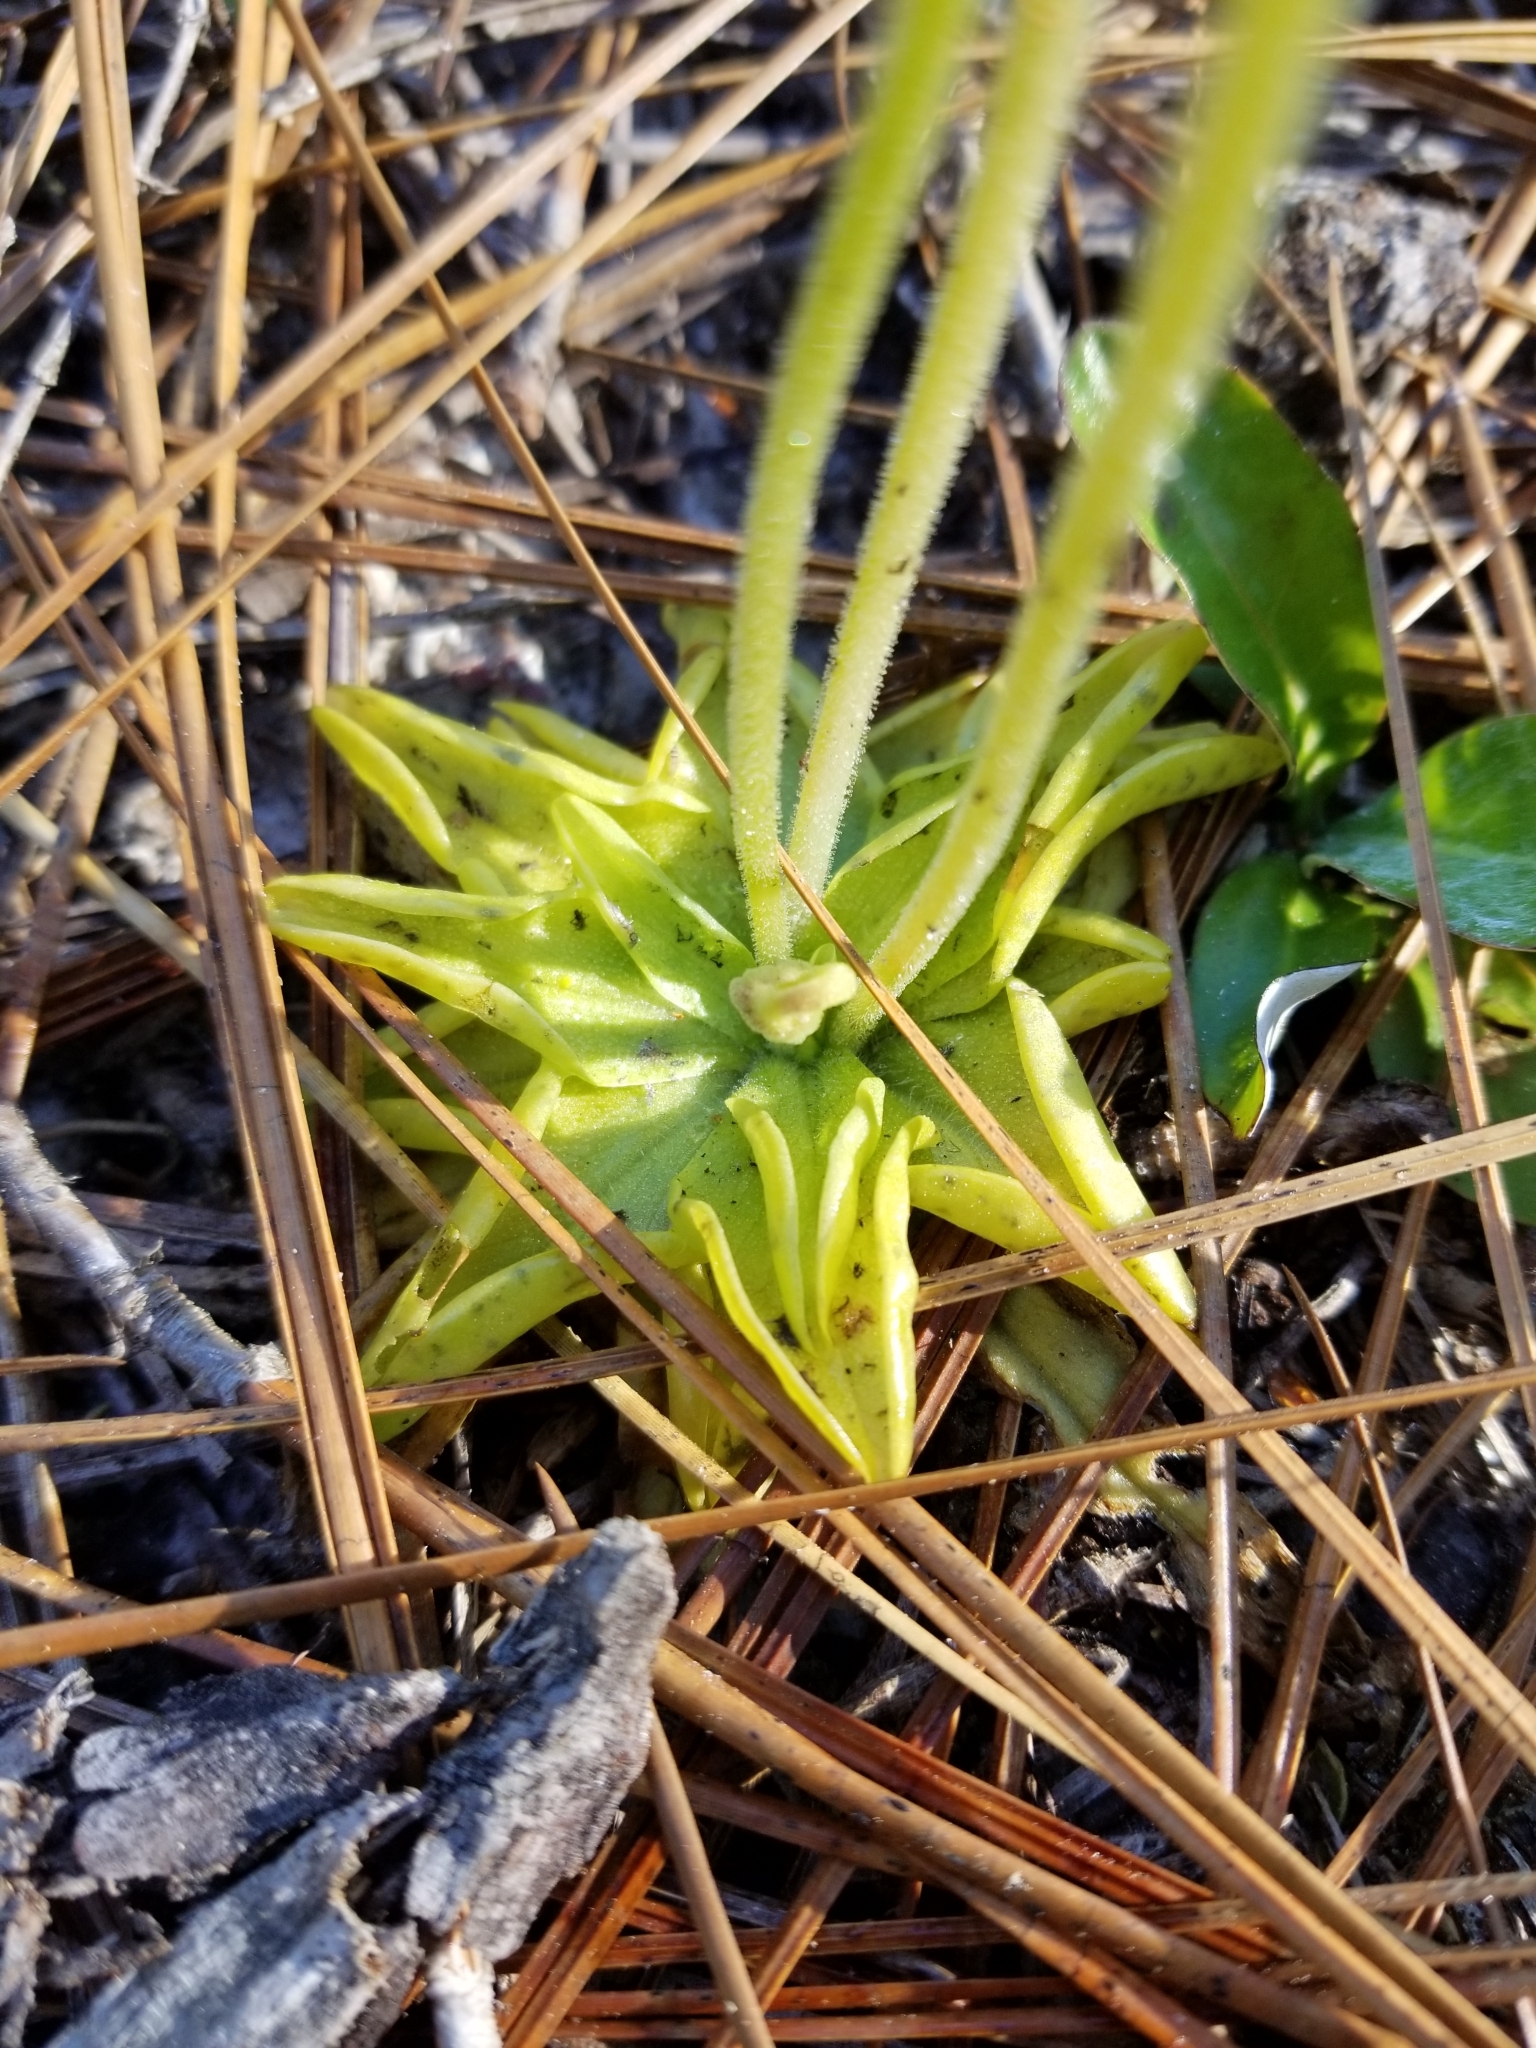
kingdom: Plantae
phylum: Tracheophyta
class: Magnoliopsida
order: Lamiales
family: Lentibulariaceae
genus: Pinguicula
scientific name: Pinguicula lutea
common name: Yellow butterwort
